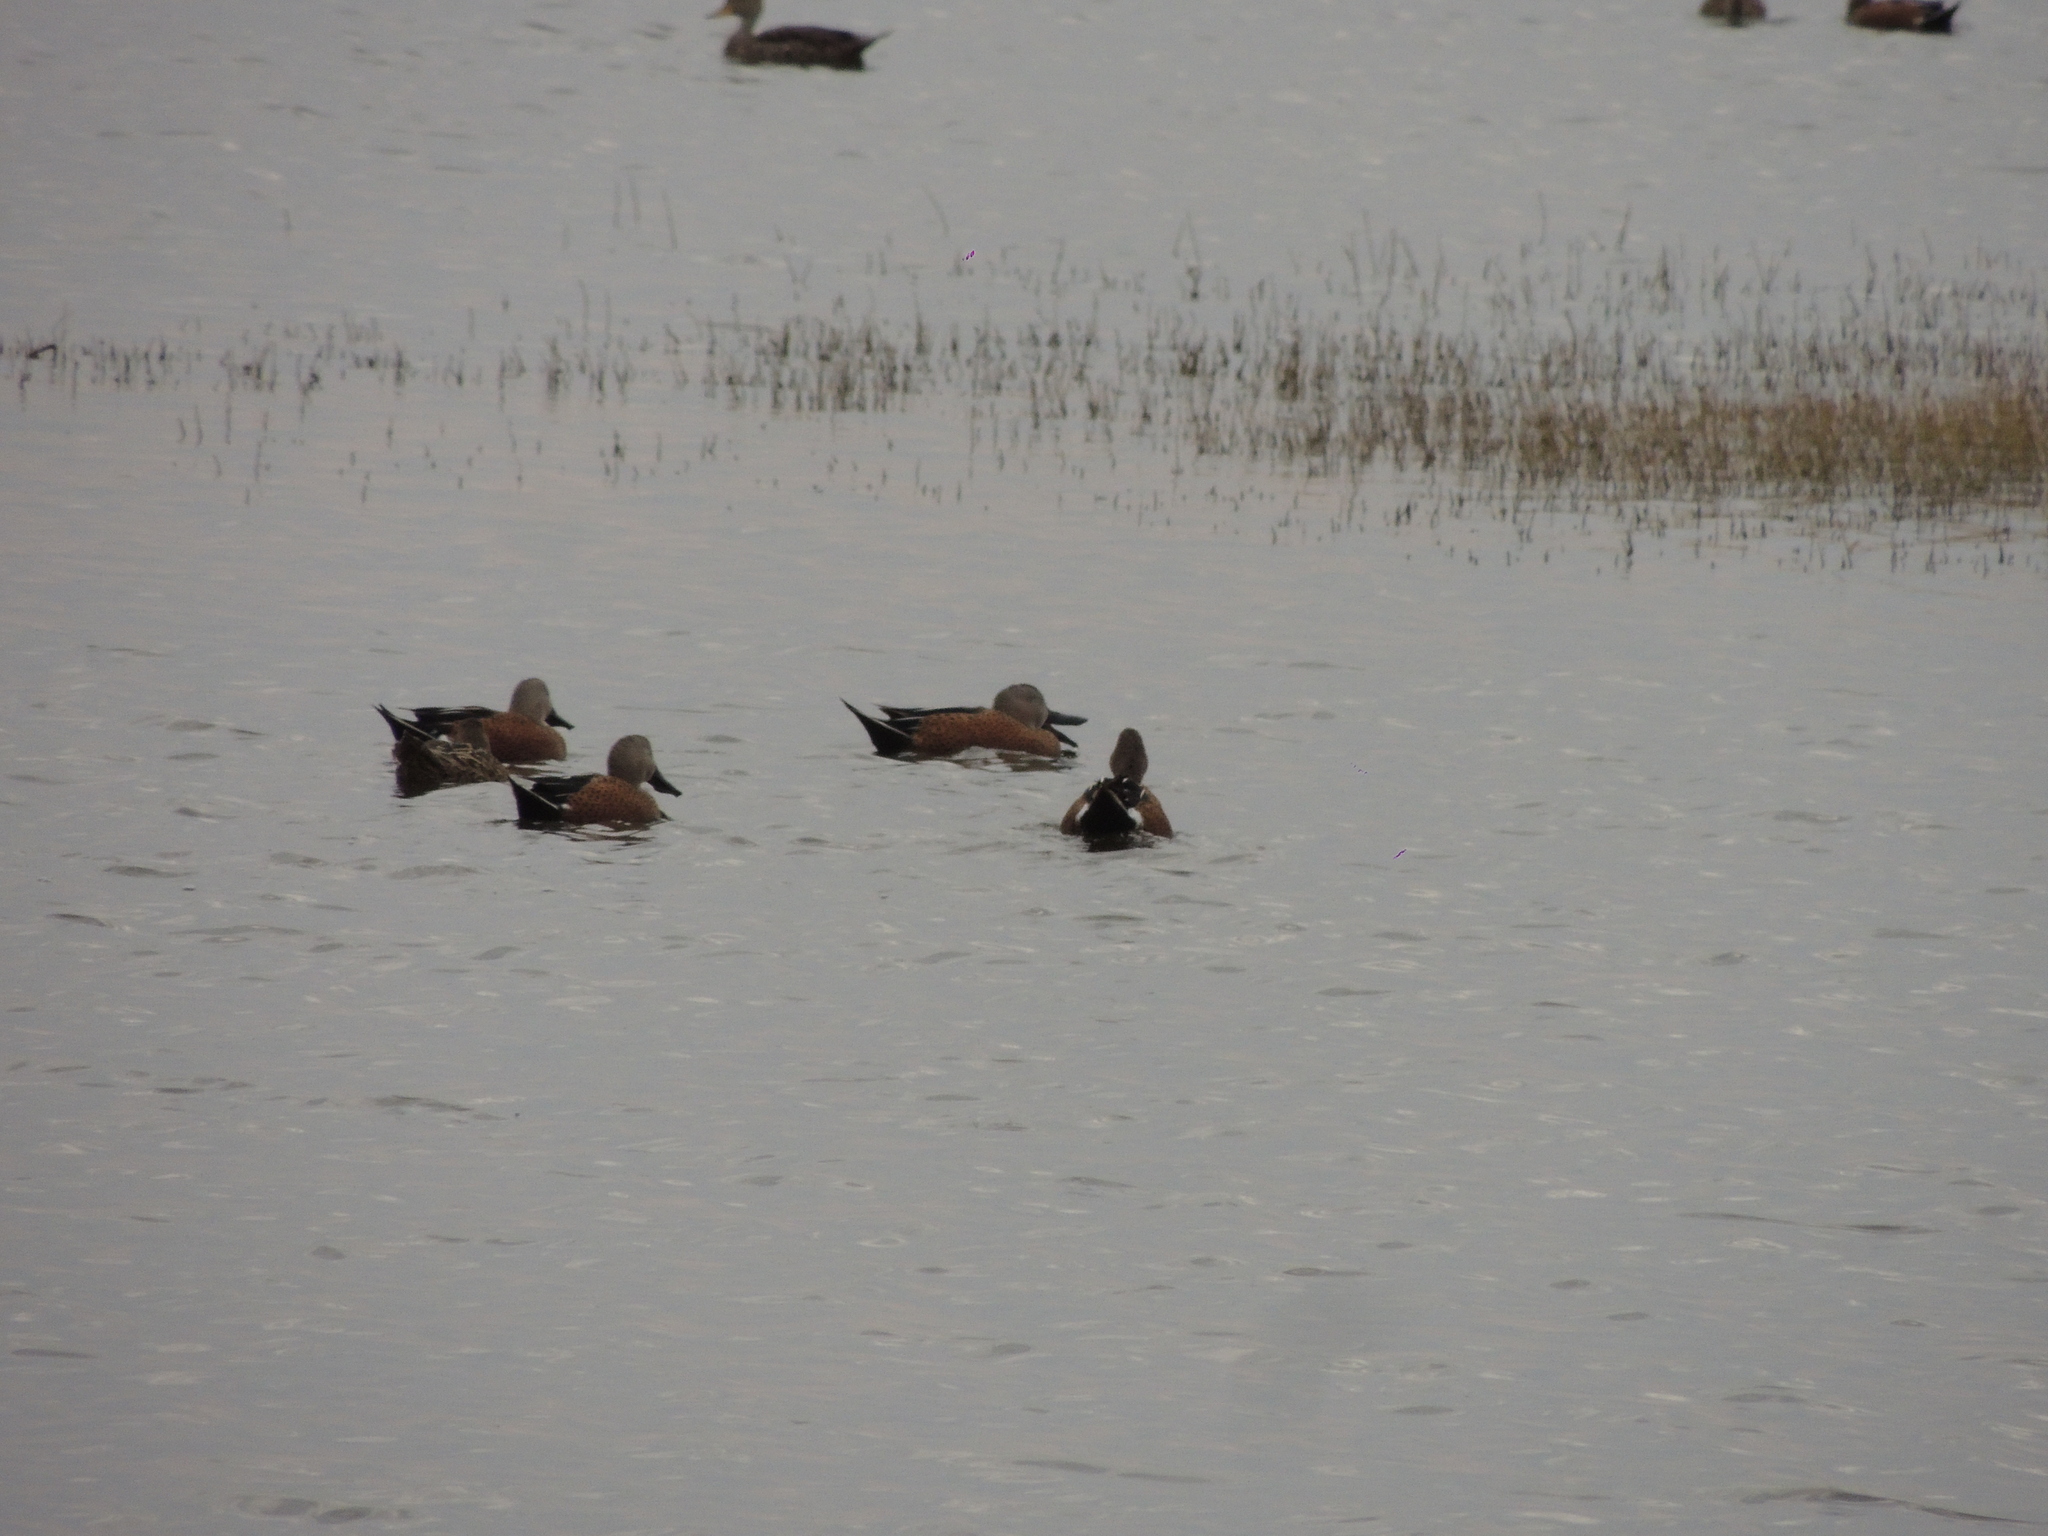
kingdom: Animalia
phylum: Chordata
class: Aves
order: Anseriformes
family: Anatidae
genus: Spatula
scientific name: Spatula platalea
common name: Red shoveler
